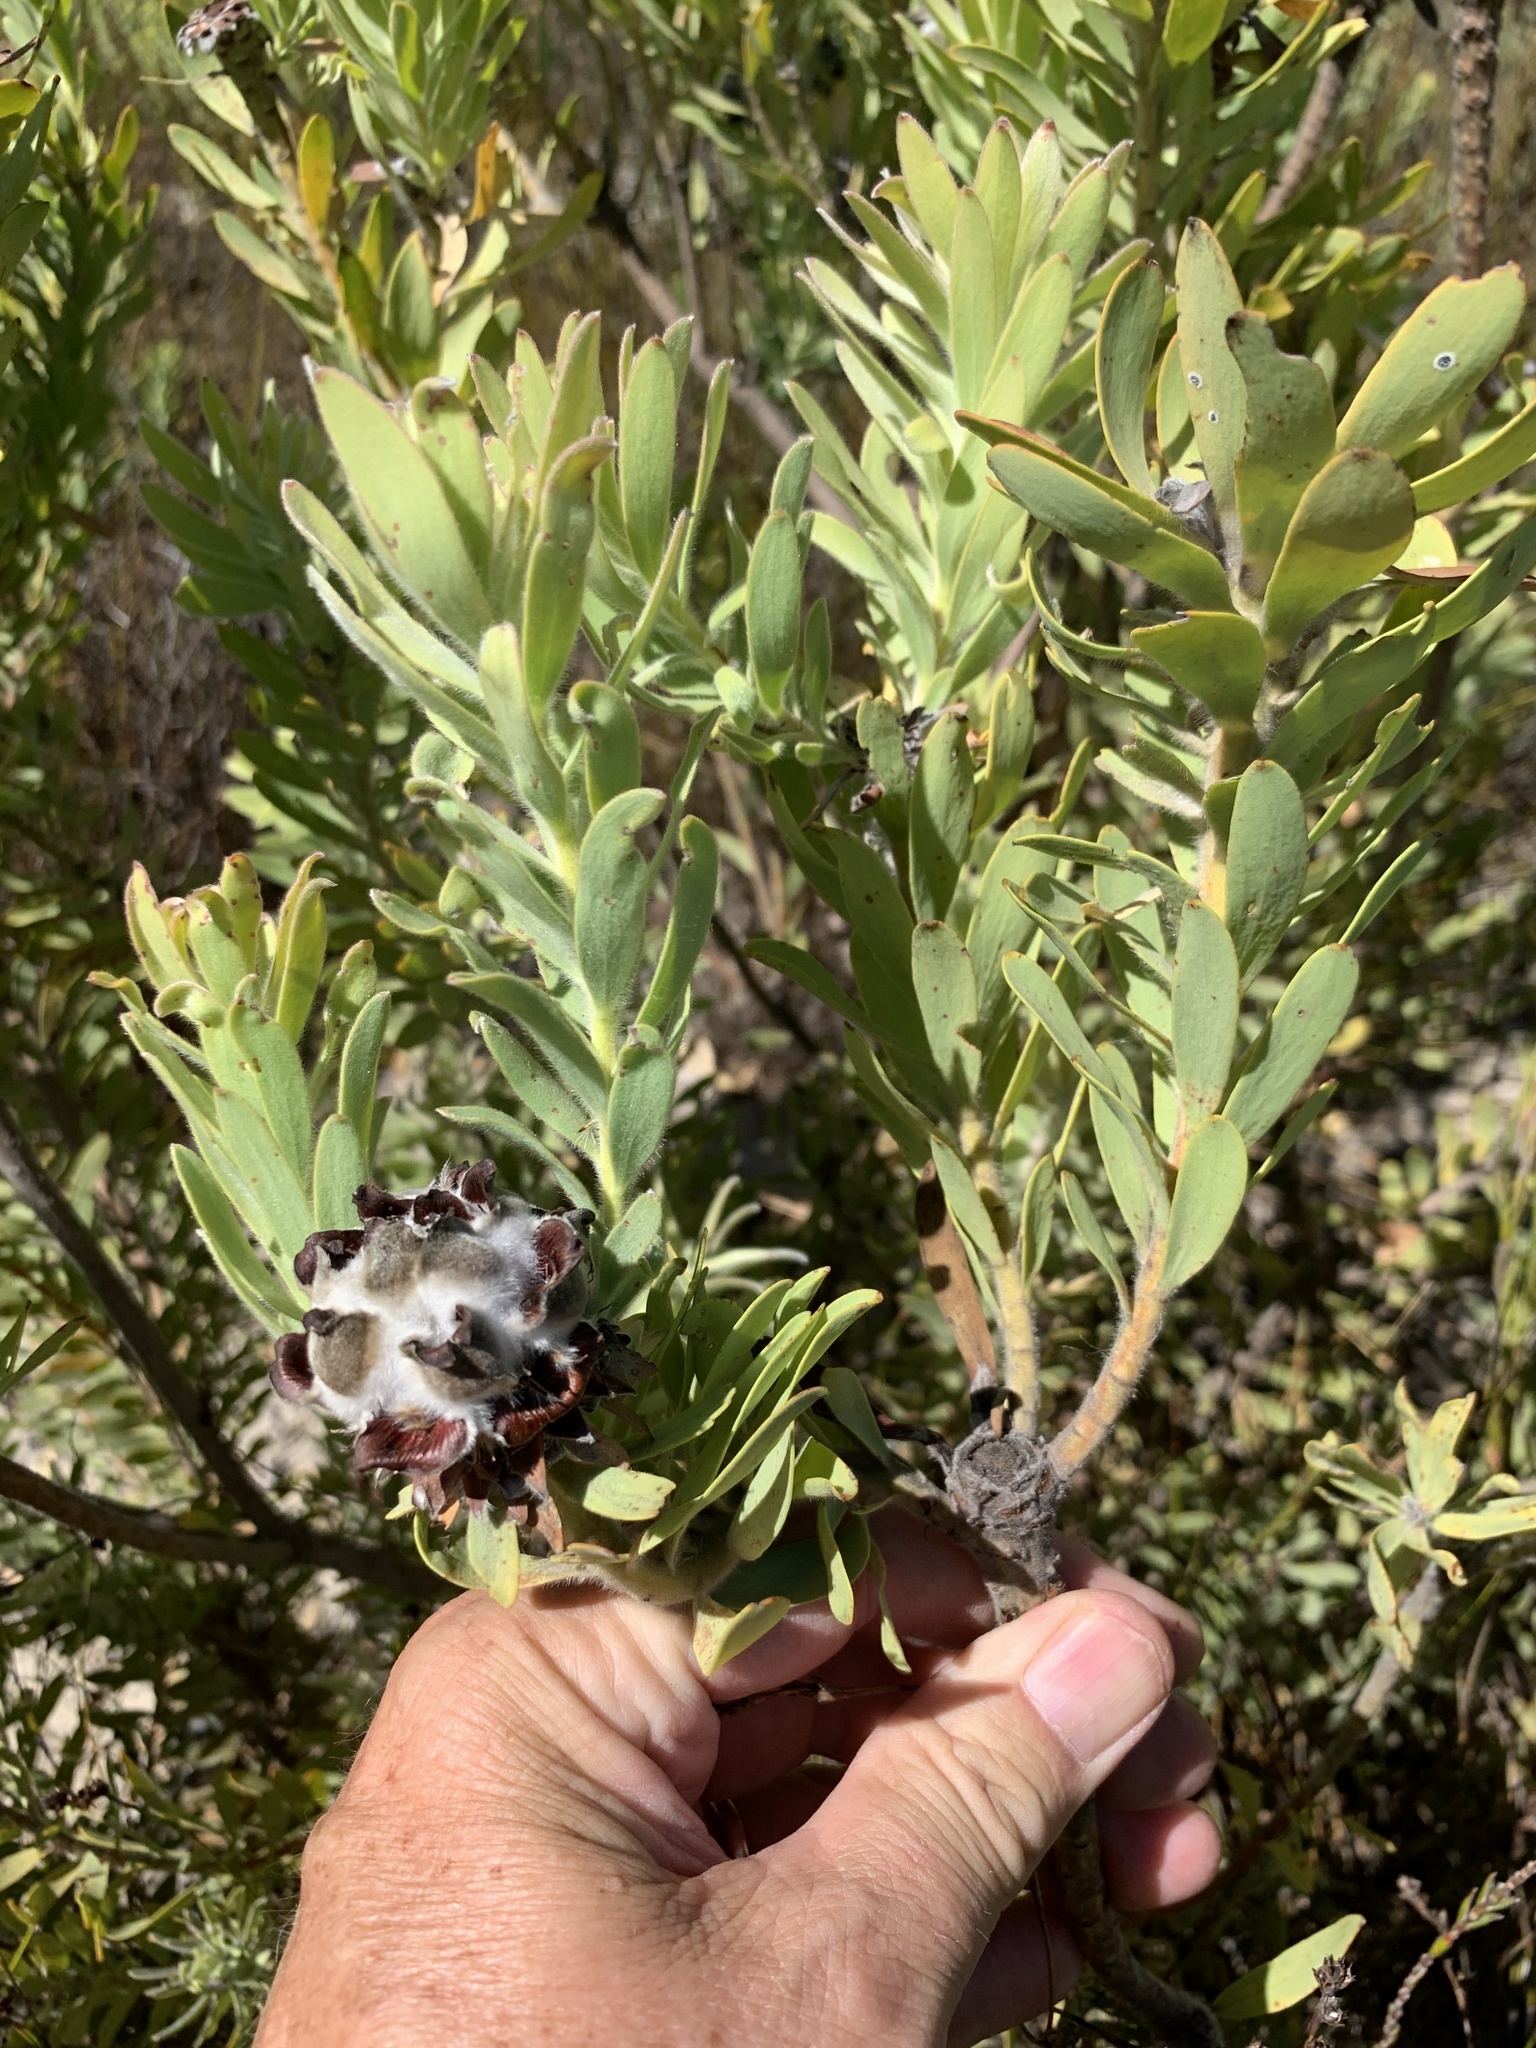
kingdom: Plantae
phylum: Tracheophyta
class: Magnoliopsida
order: Proteales
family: Proteaceae
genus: Leucadendron
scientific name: Leucadendron pubescens
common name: Grey conebush
